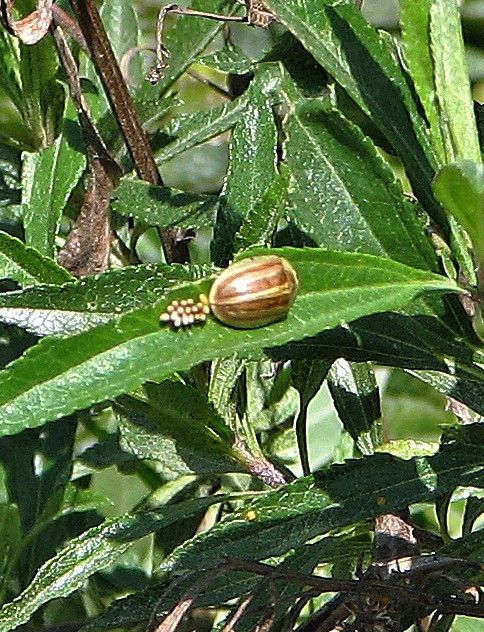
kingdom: Animalia
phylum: Arthropoda
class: Insecta
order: Coleoptera
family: Chrysomelidae
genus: Anacassis
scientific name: Anacassis fuscata
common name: Seepwillow flea beetle
